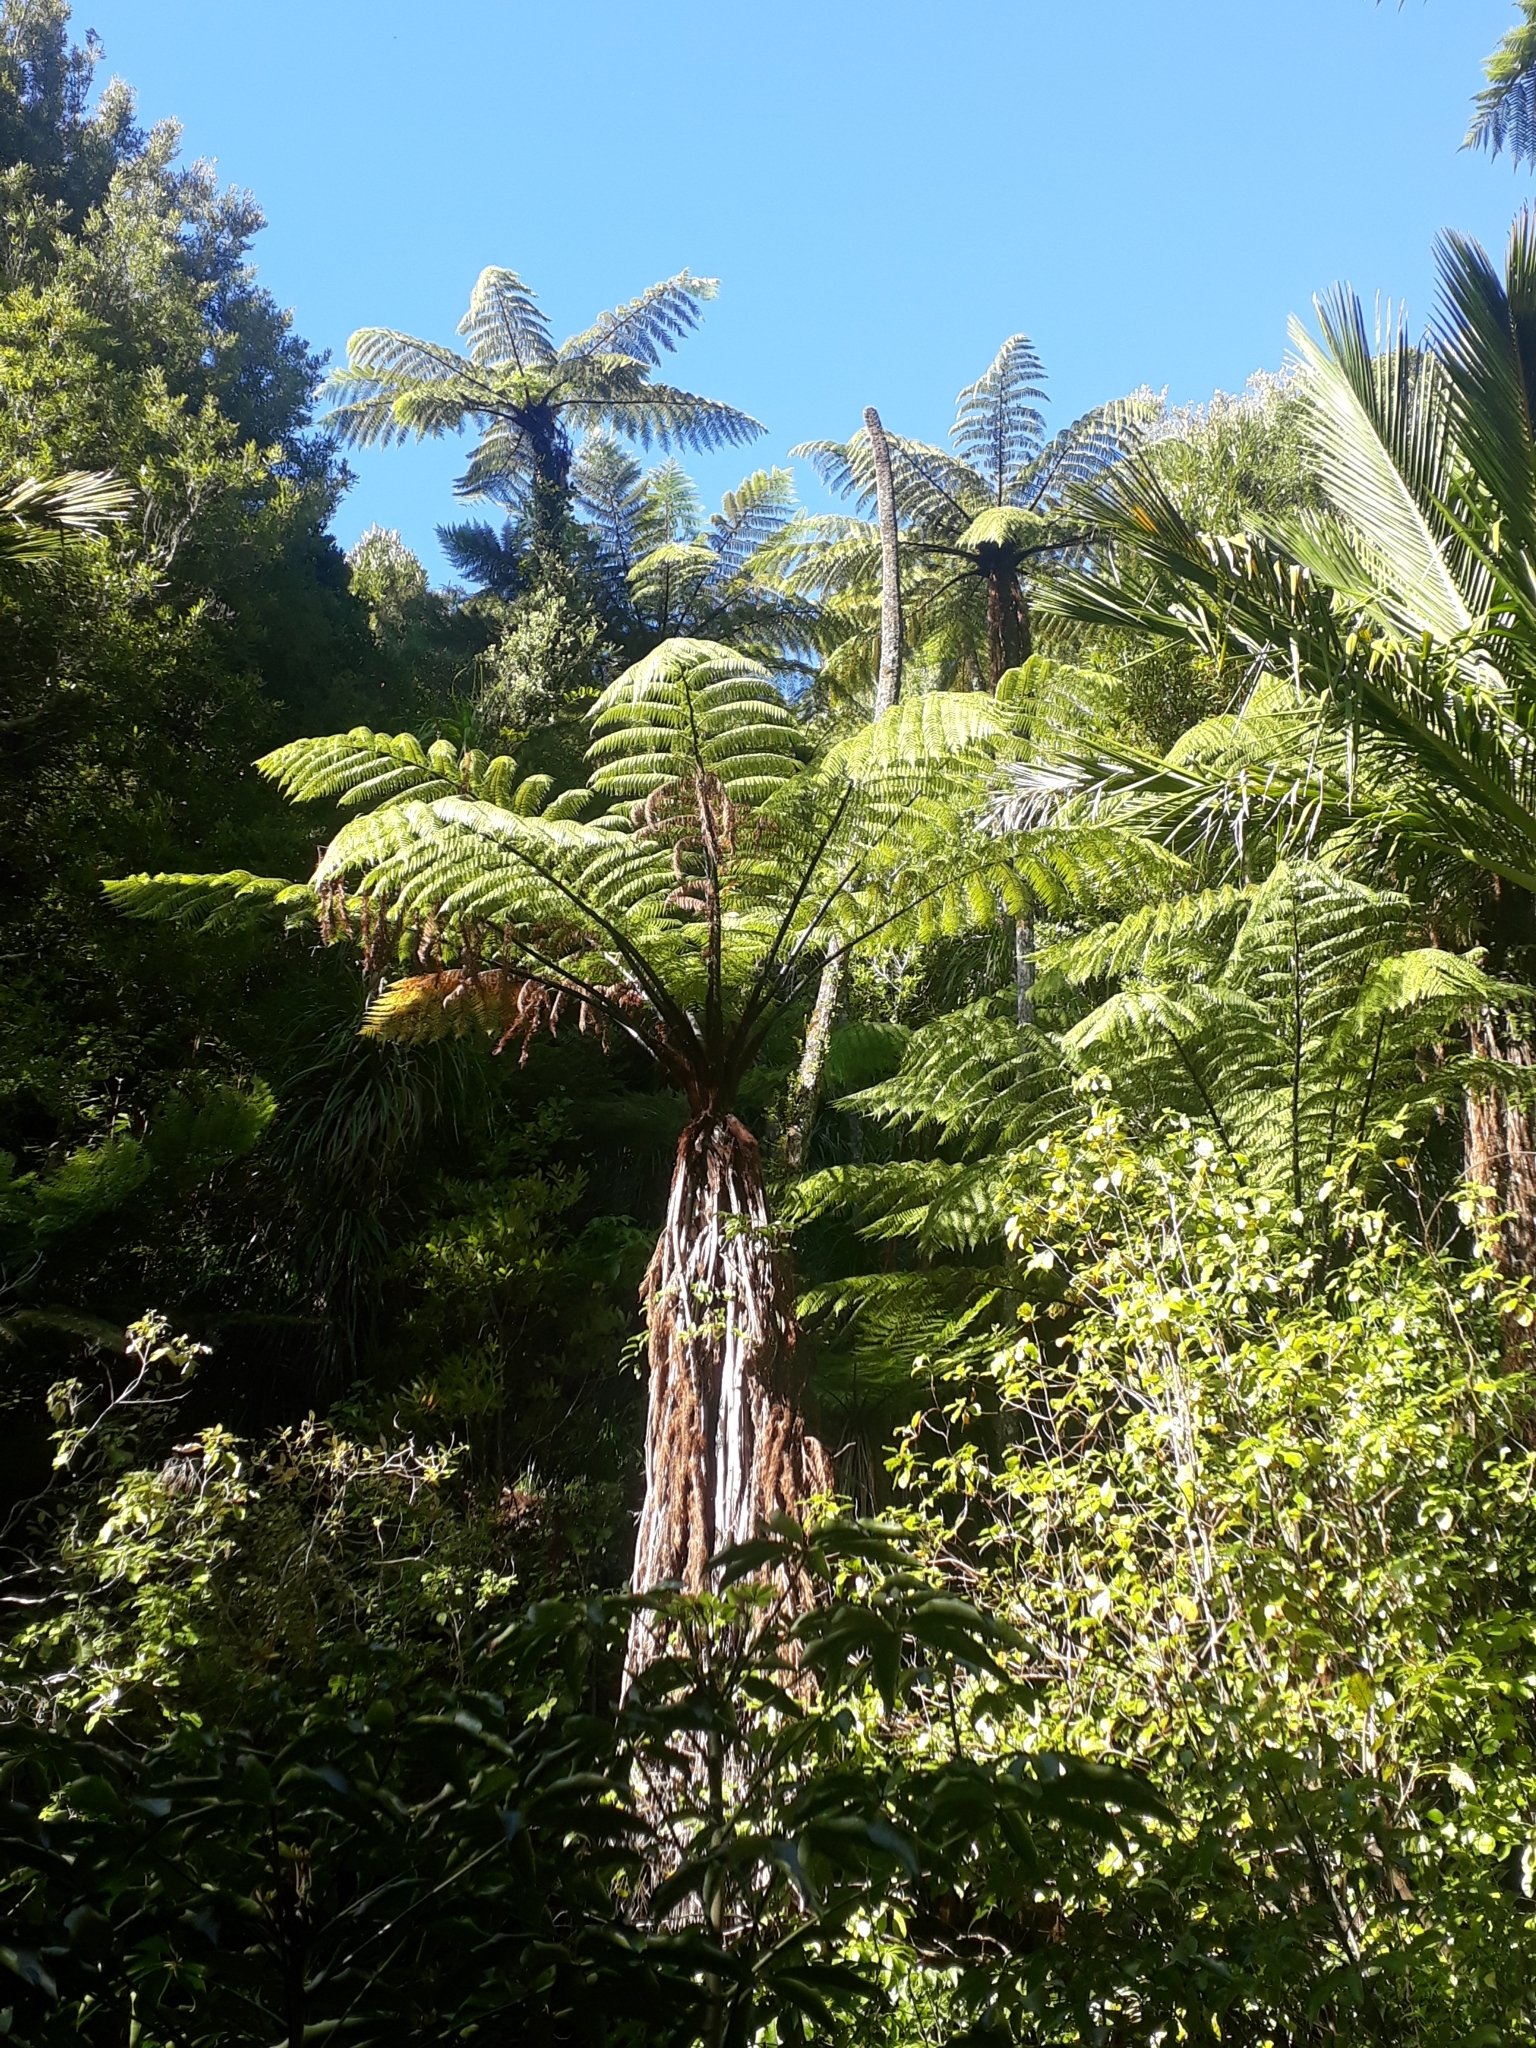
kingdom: Plantae
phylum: Tracheophyta
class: Polypodiopsida
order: Cyatheales
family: Cyatheaceae
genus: Sphaeropteris
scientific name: Sphaeropteris medullaris
